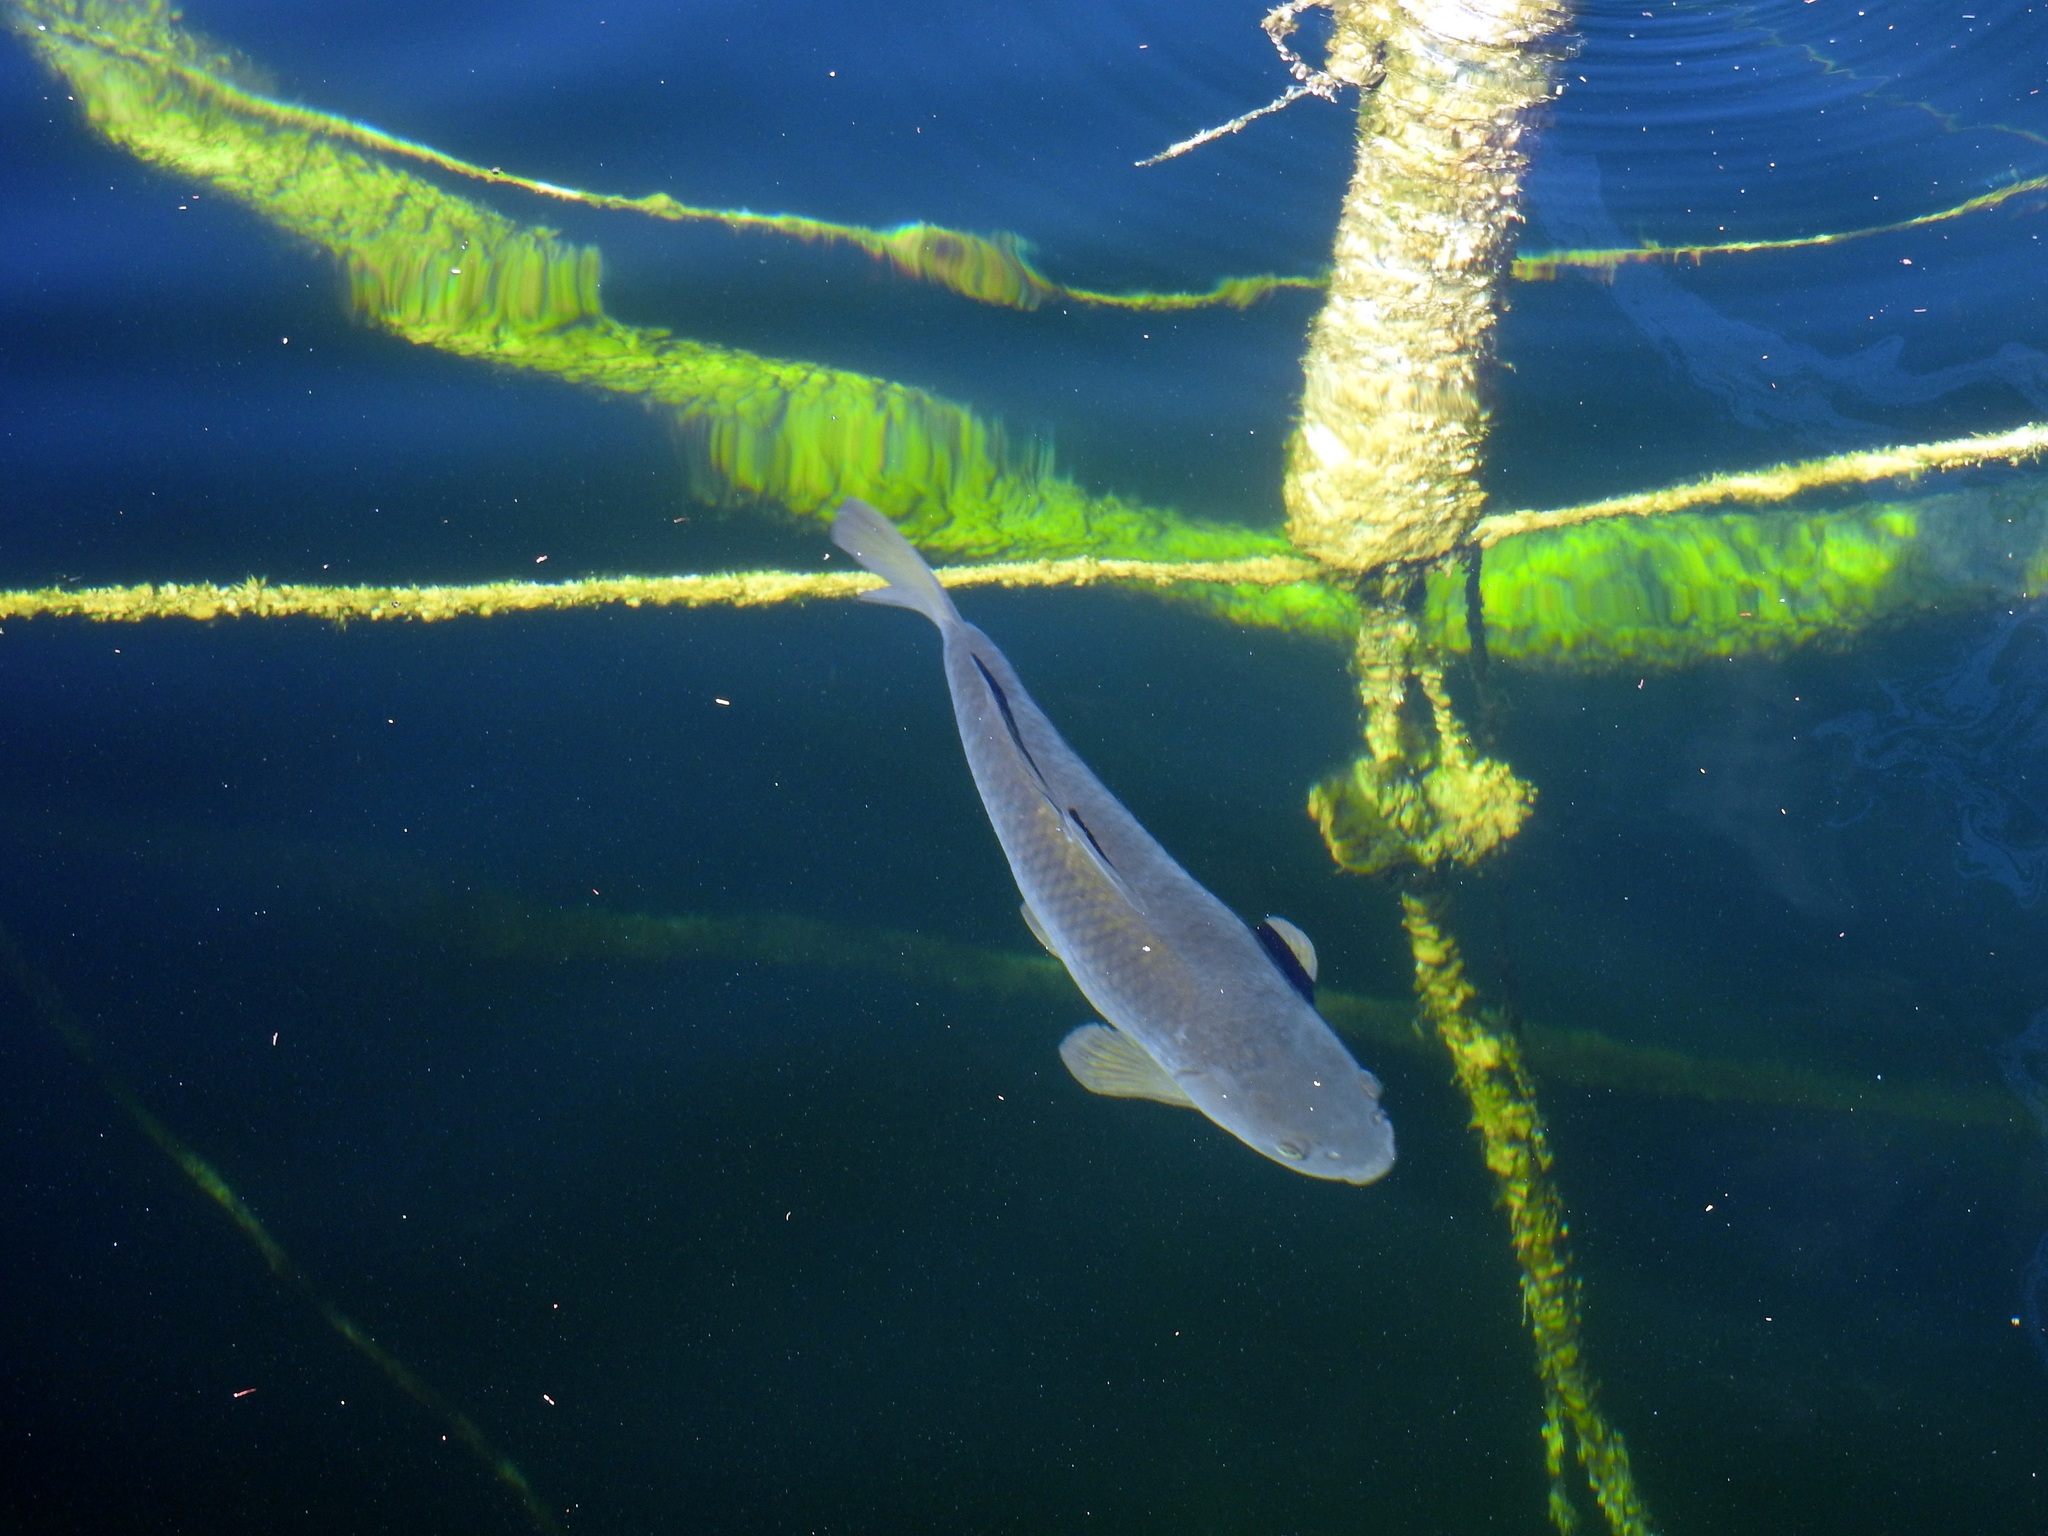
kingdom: Animalia
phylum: Chordata
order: Cypriniformes
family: Cyprinidae
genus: Cyprinus
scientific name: Cyprinus carpio
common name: Common carp
